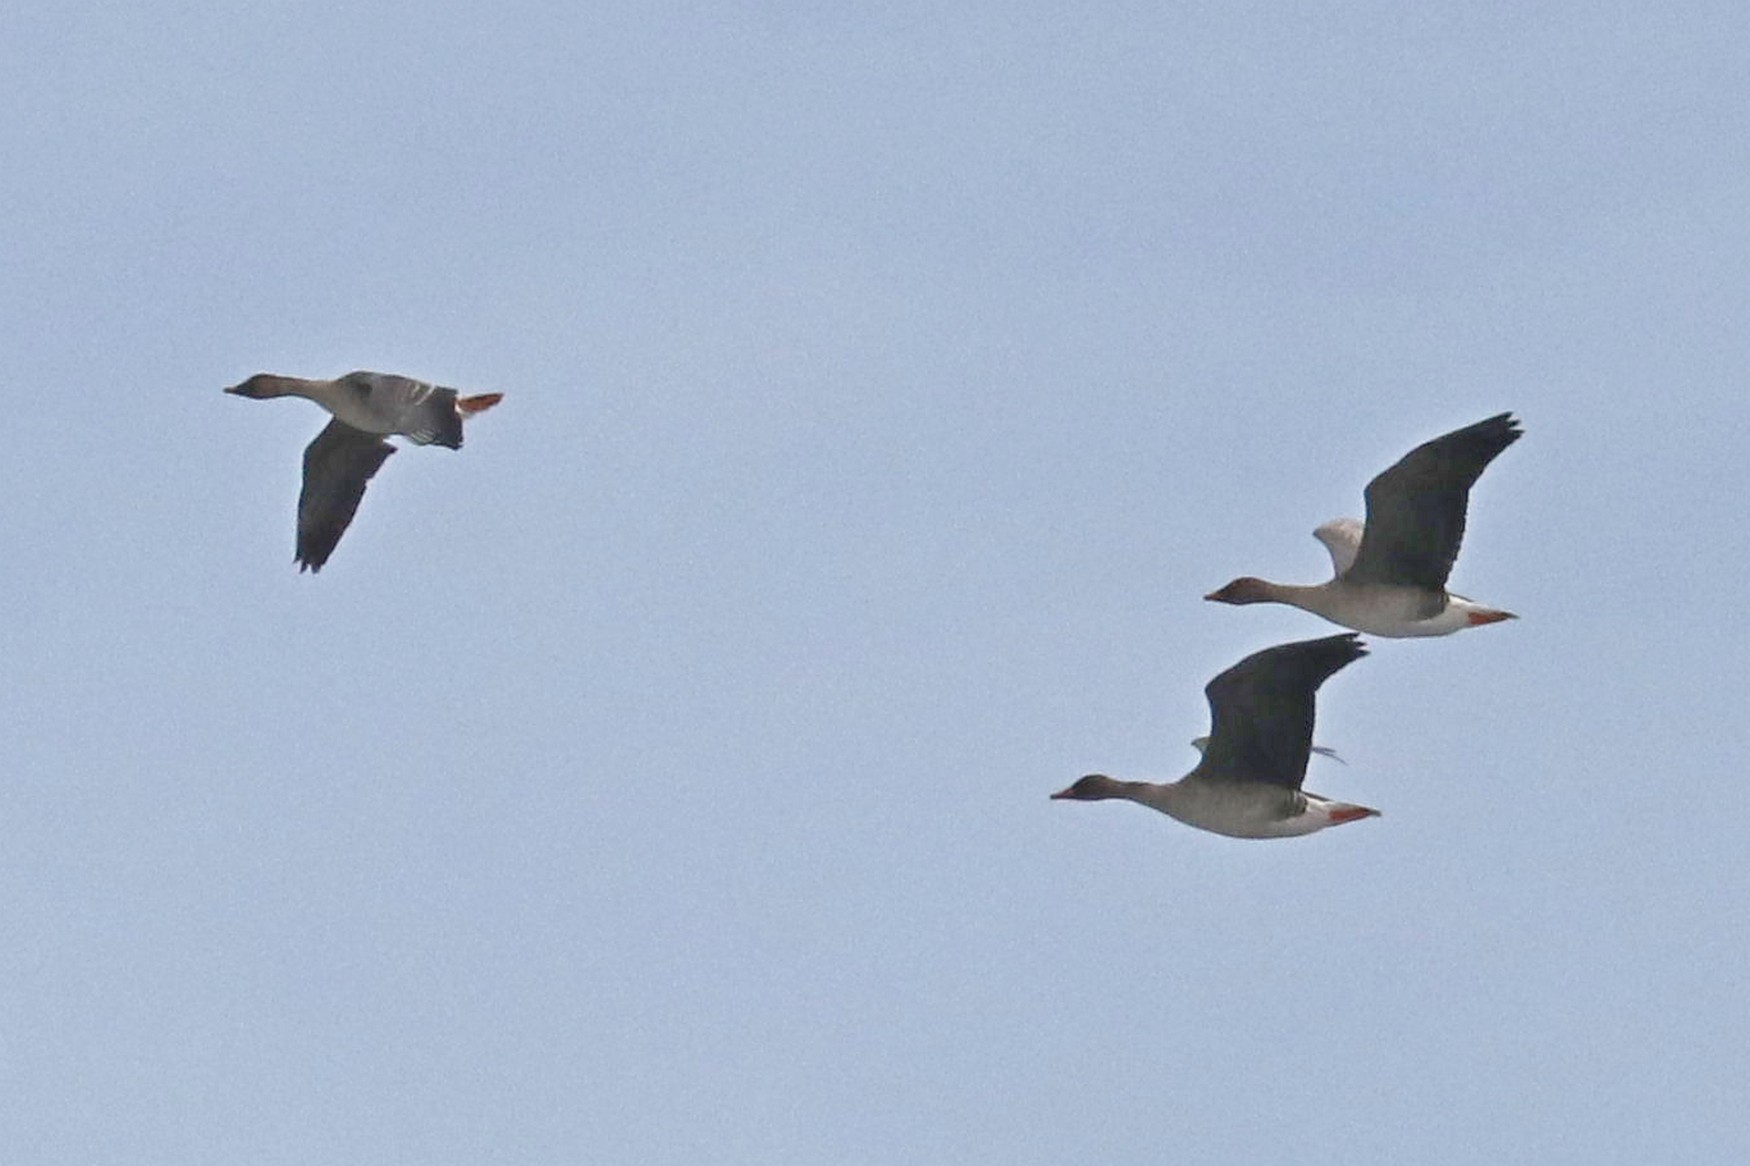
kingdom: Animalia
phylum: Chordata
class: Aves
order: Anseriformes
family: Anatidae
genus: Anser
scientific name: Anser fabalis
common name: Bean goose
